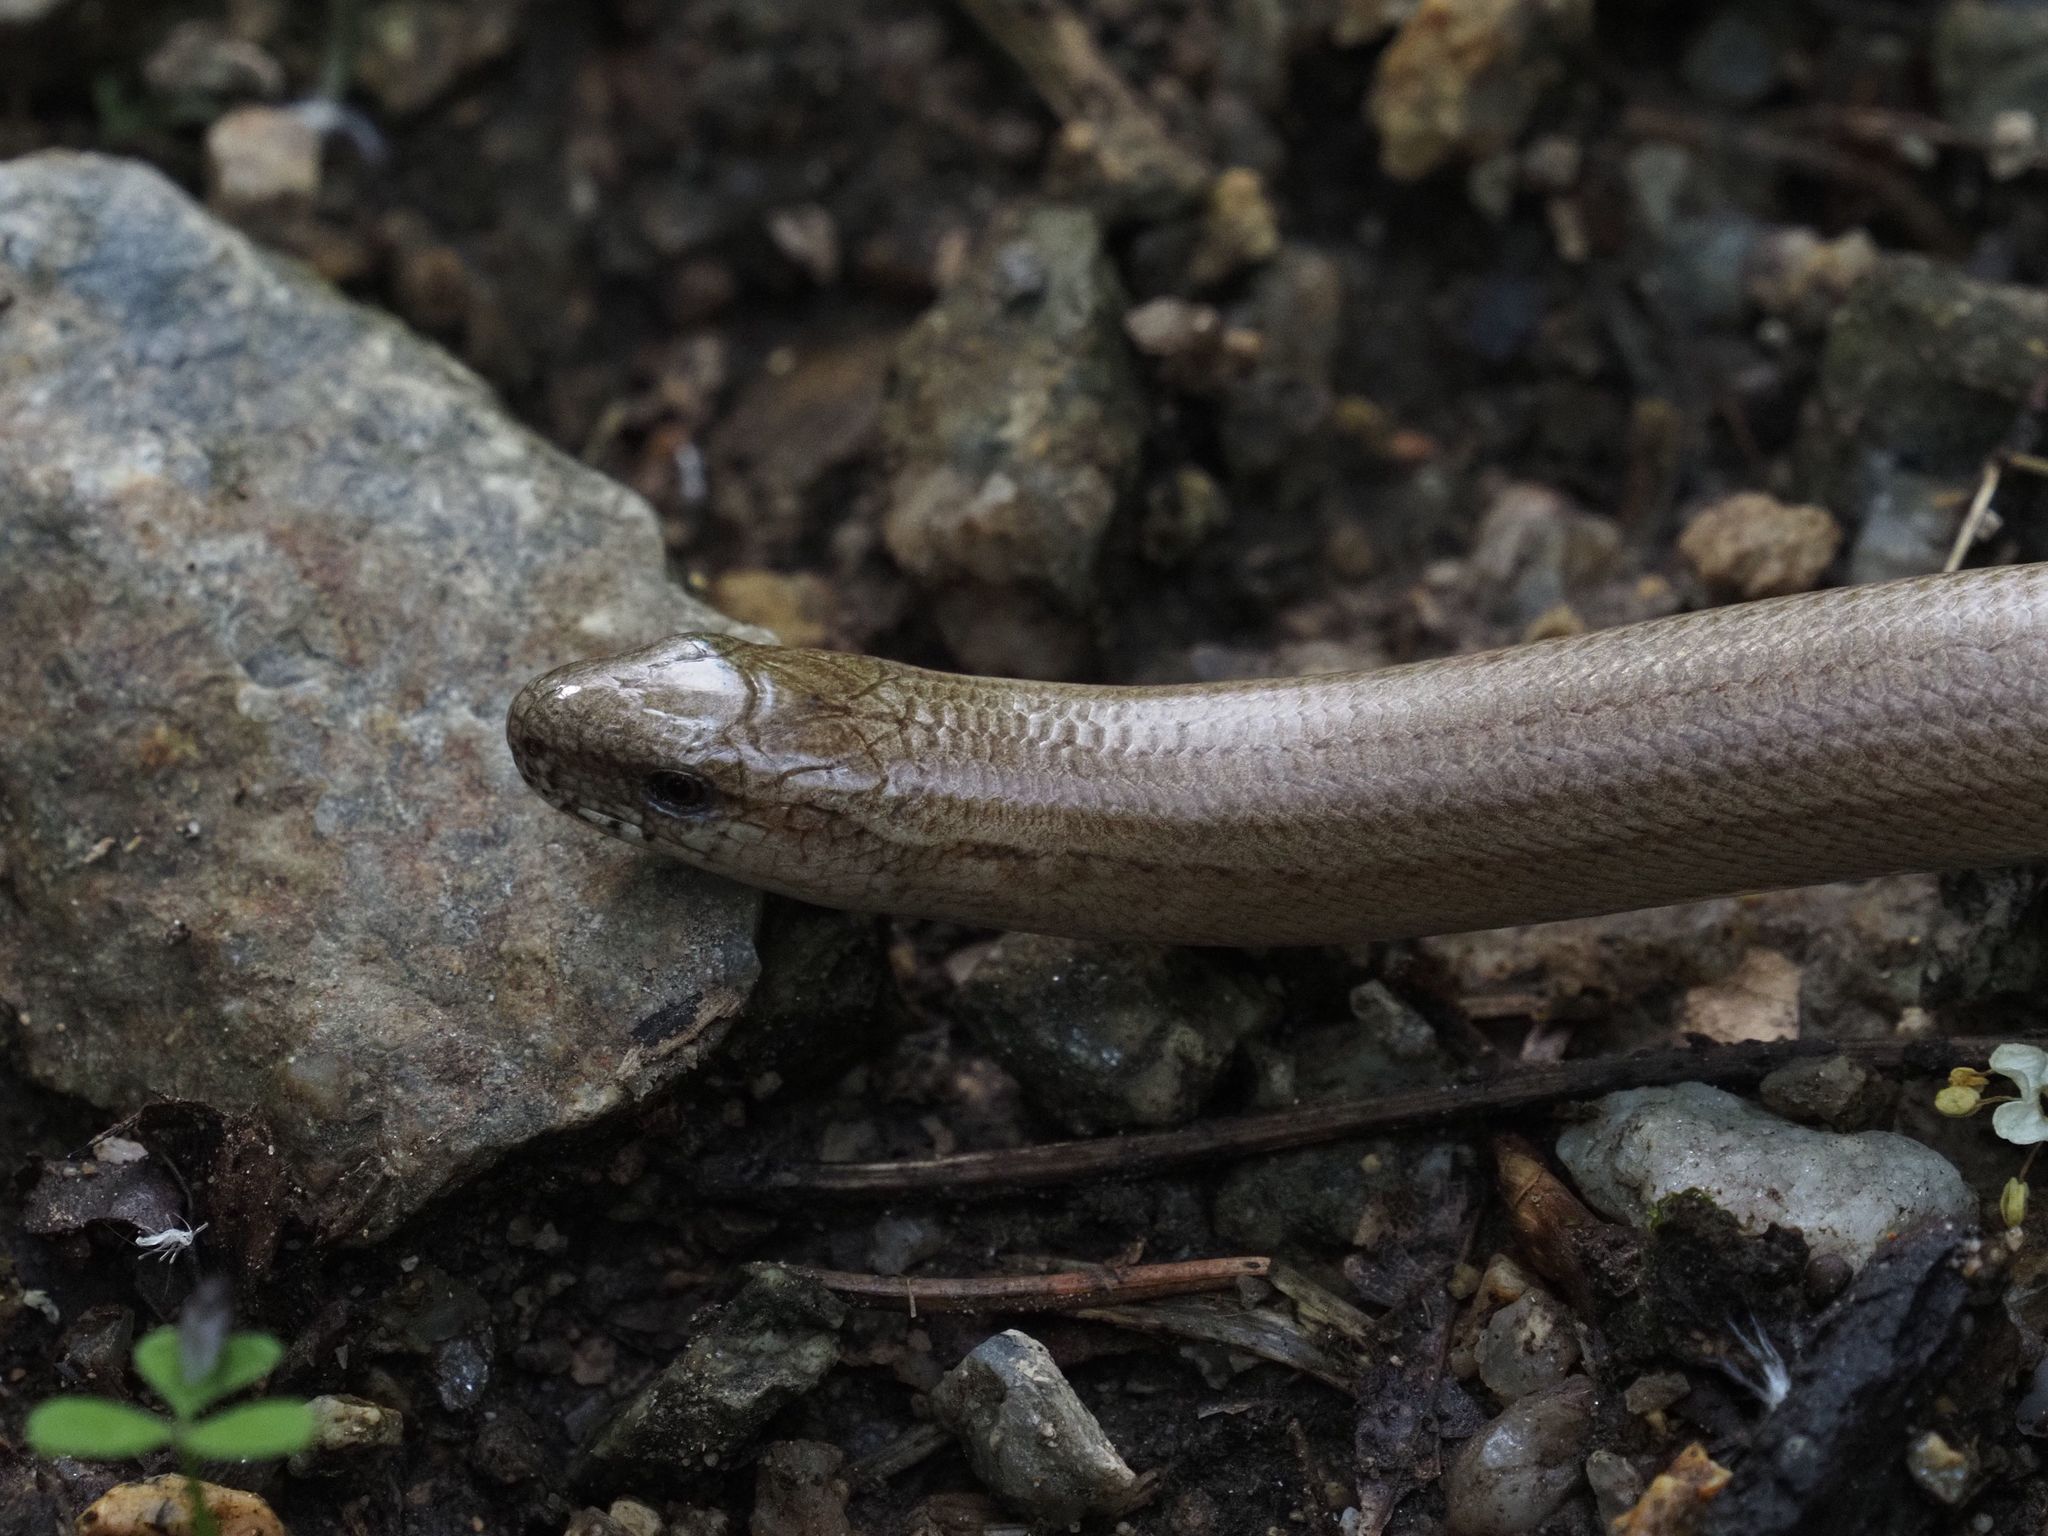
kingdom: Animalia
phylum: Chordata
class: Squamata
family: Anguidae
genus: Anguis
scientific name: Anguis fragilis
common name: Slow worm
